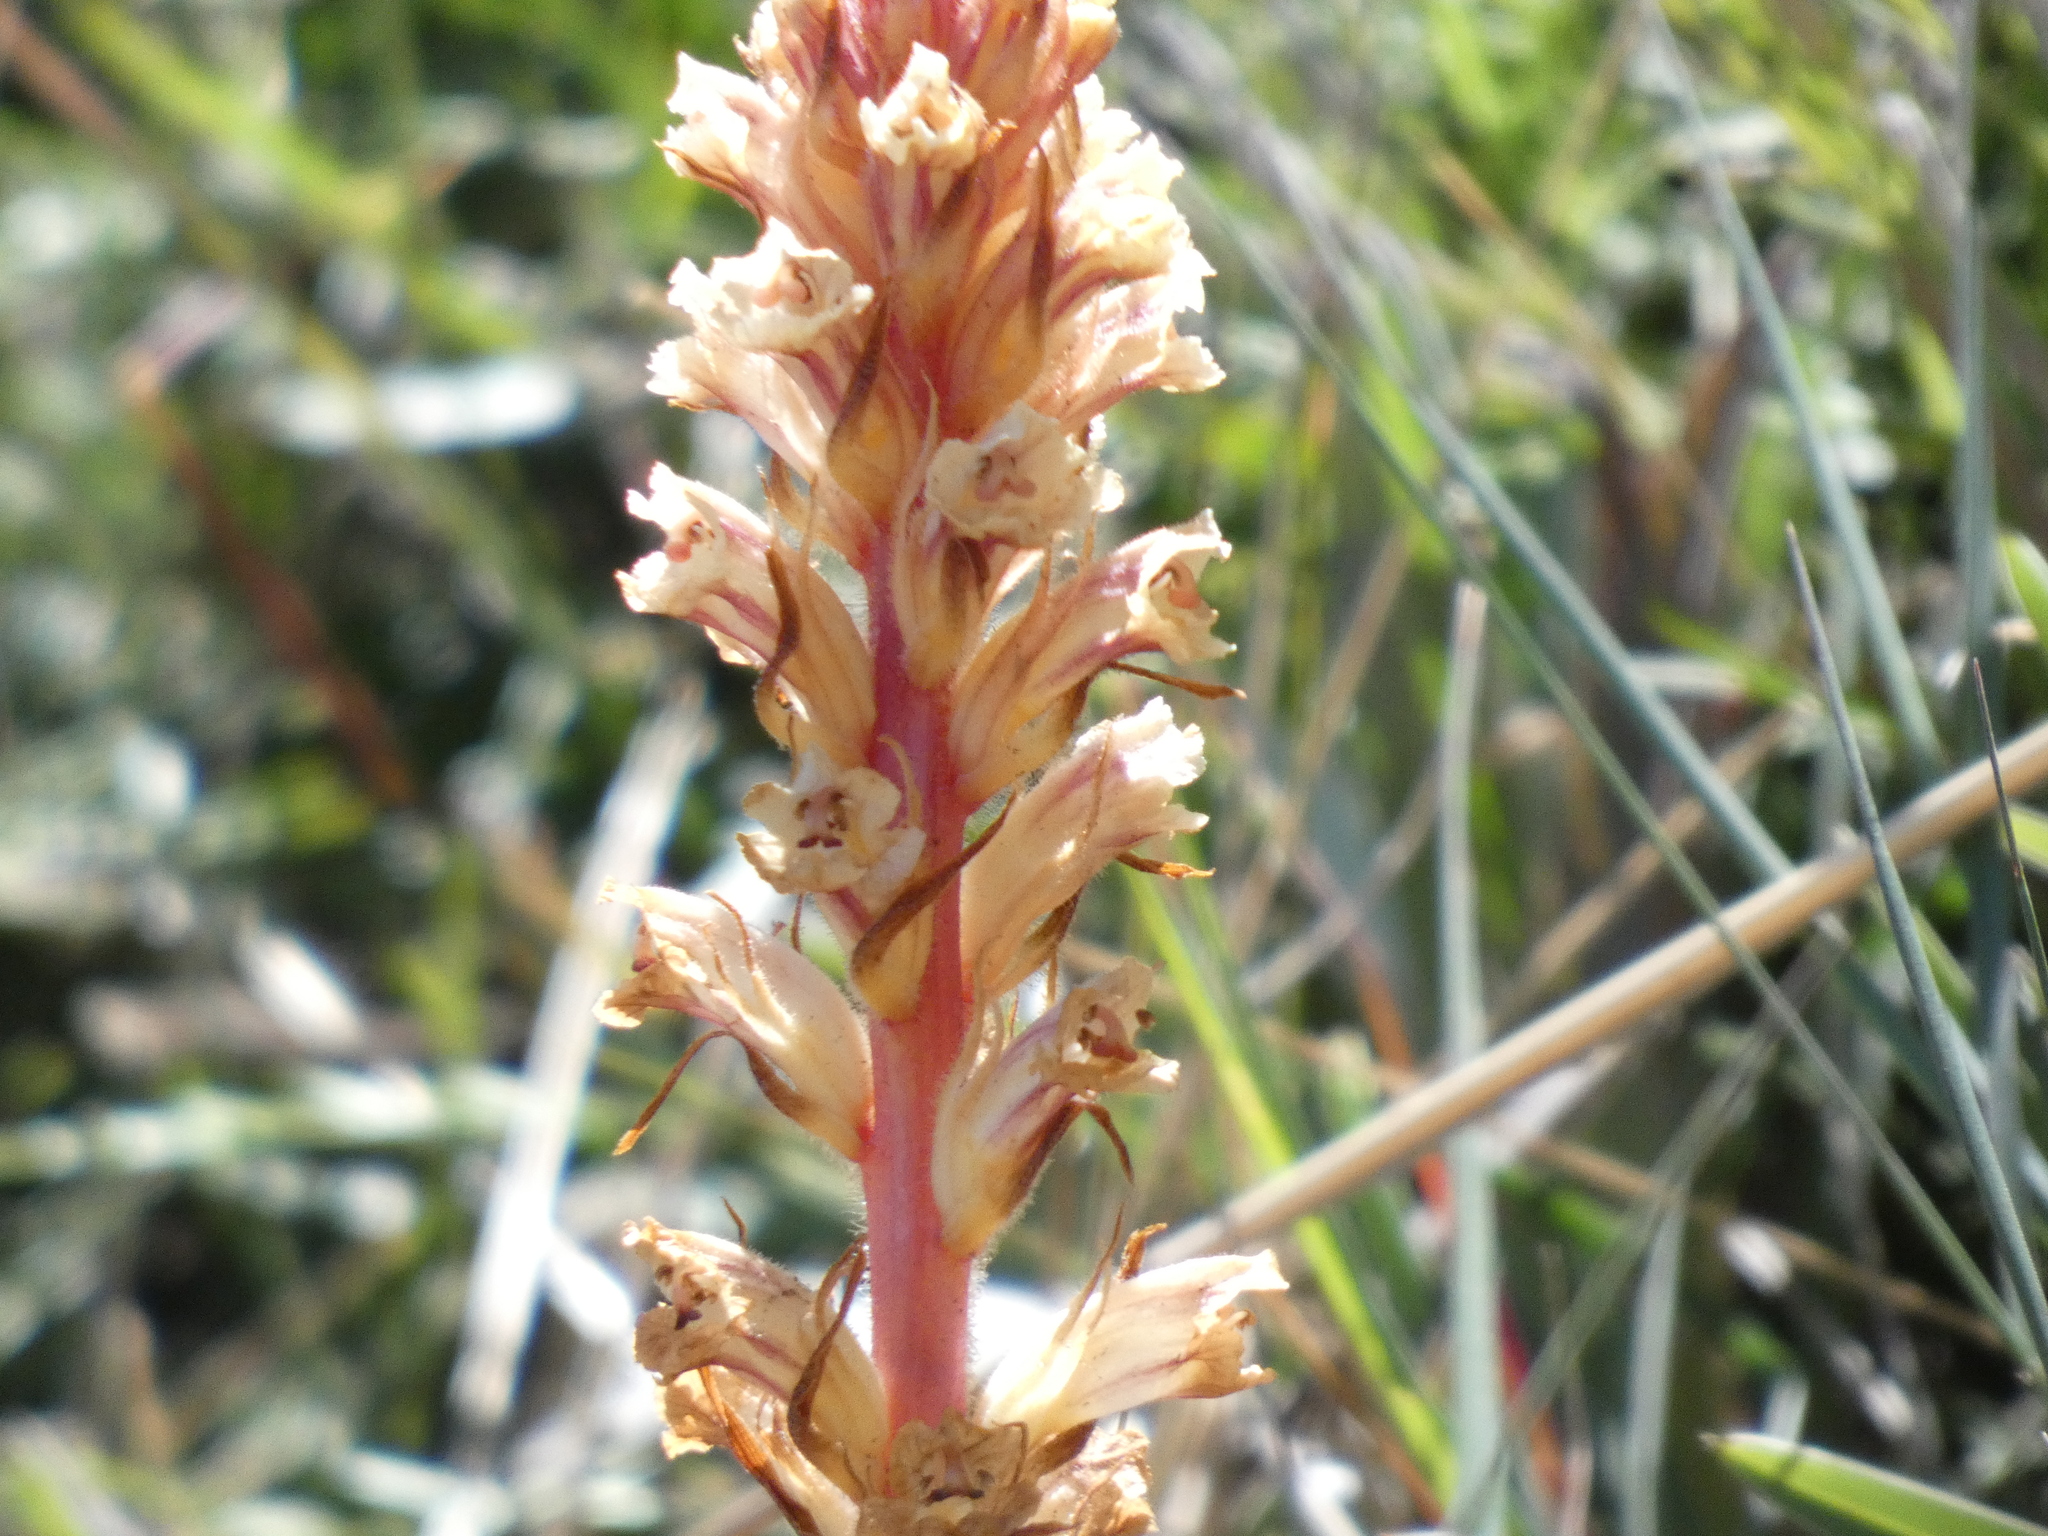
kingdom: Plantae
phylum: Tracheophyta
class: Magnoliopsida
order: Lamiales
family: Orobanchaceae
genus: Orobanche
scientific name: Orobanche minor
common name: Common broomrape
